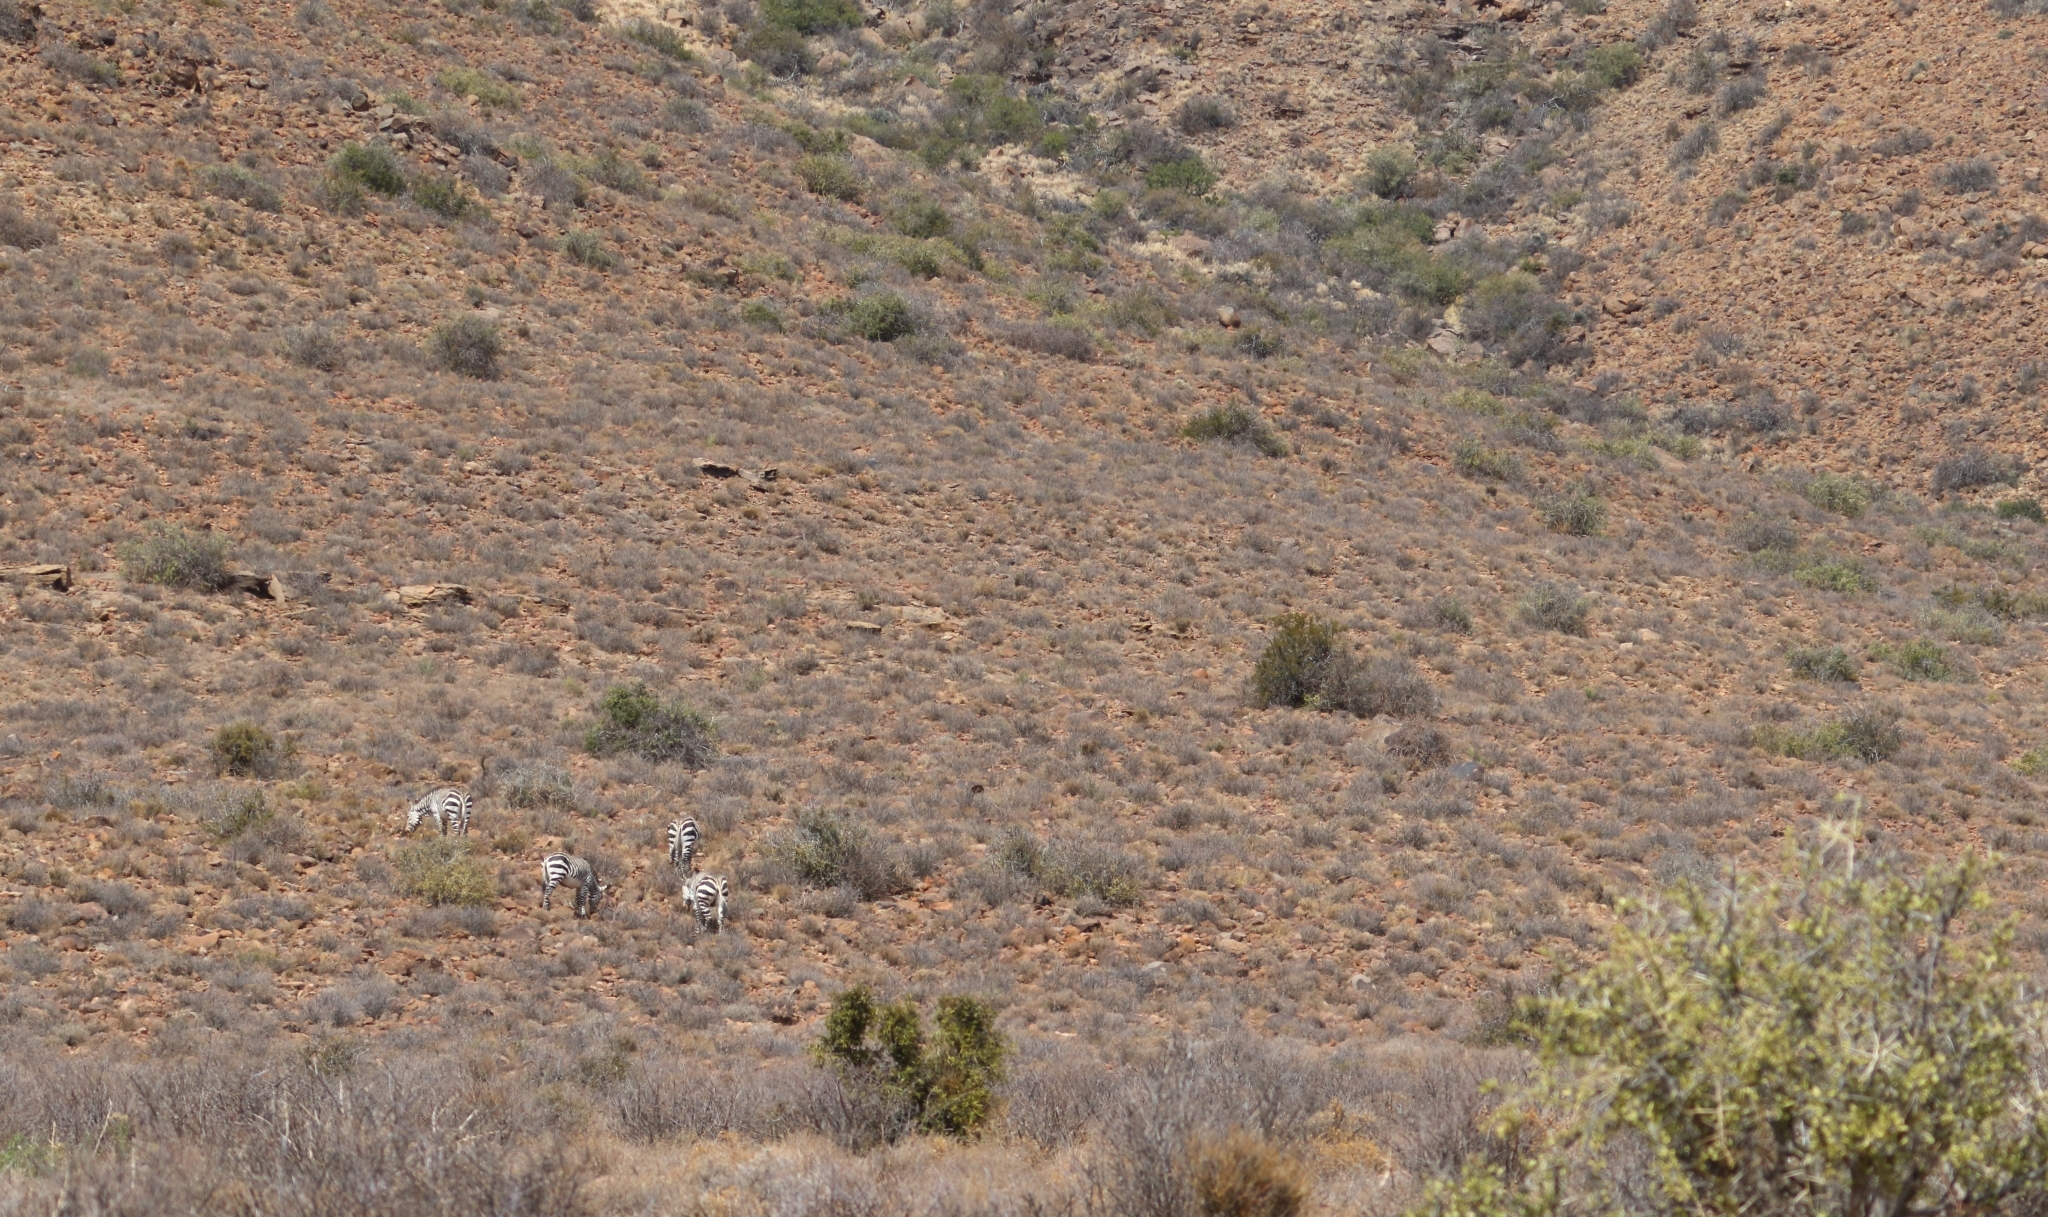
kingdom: Animalia
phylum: Chordata
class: Mammalia
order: Perissodactyla
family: Equidae
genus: Equus
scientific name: Equus zebra
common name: Mountain zebra
